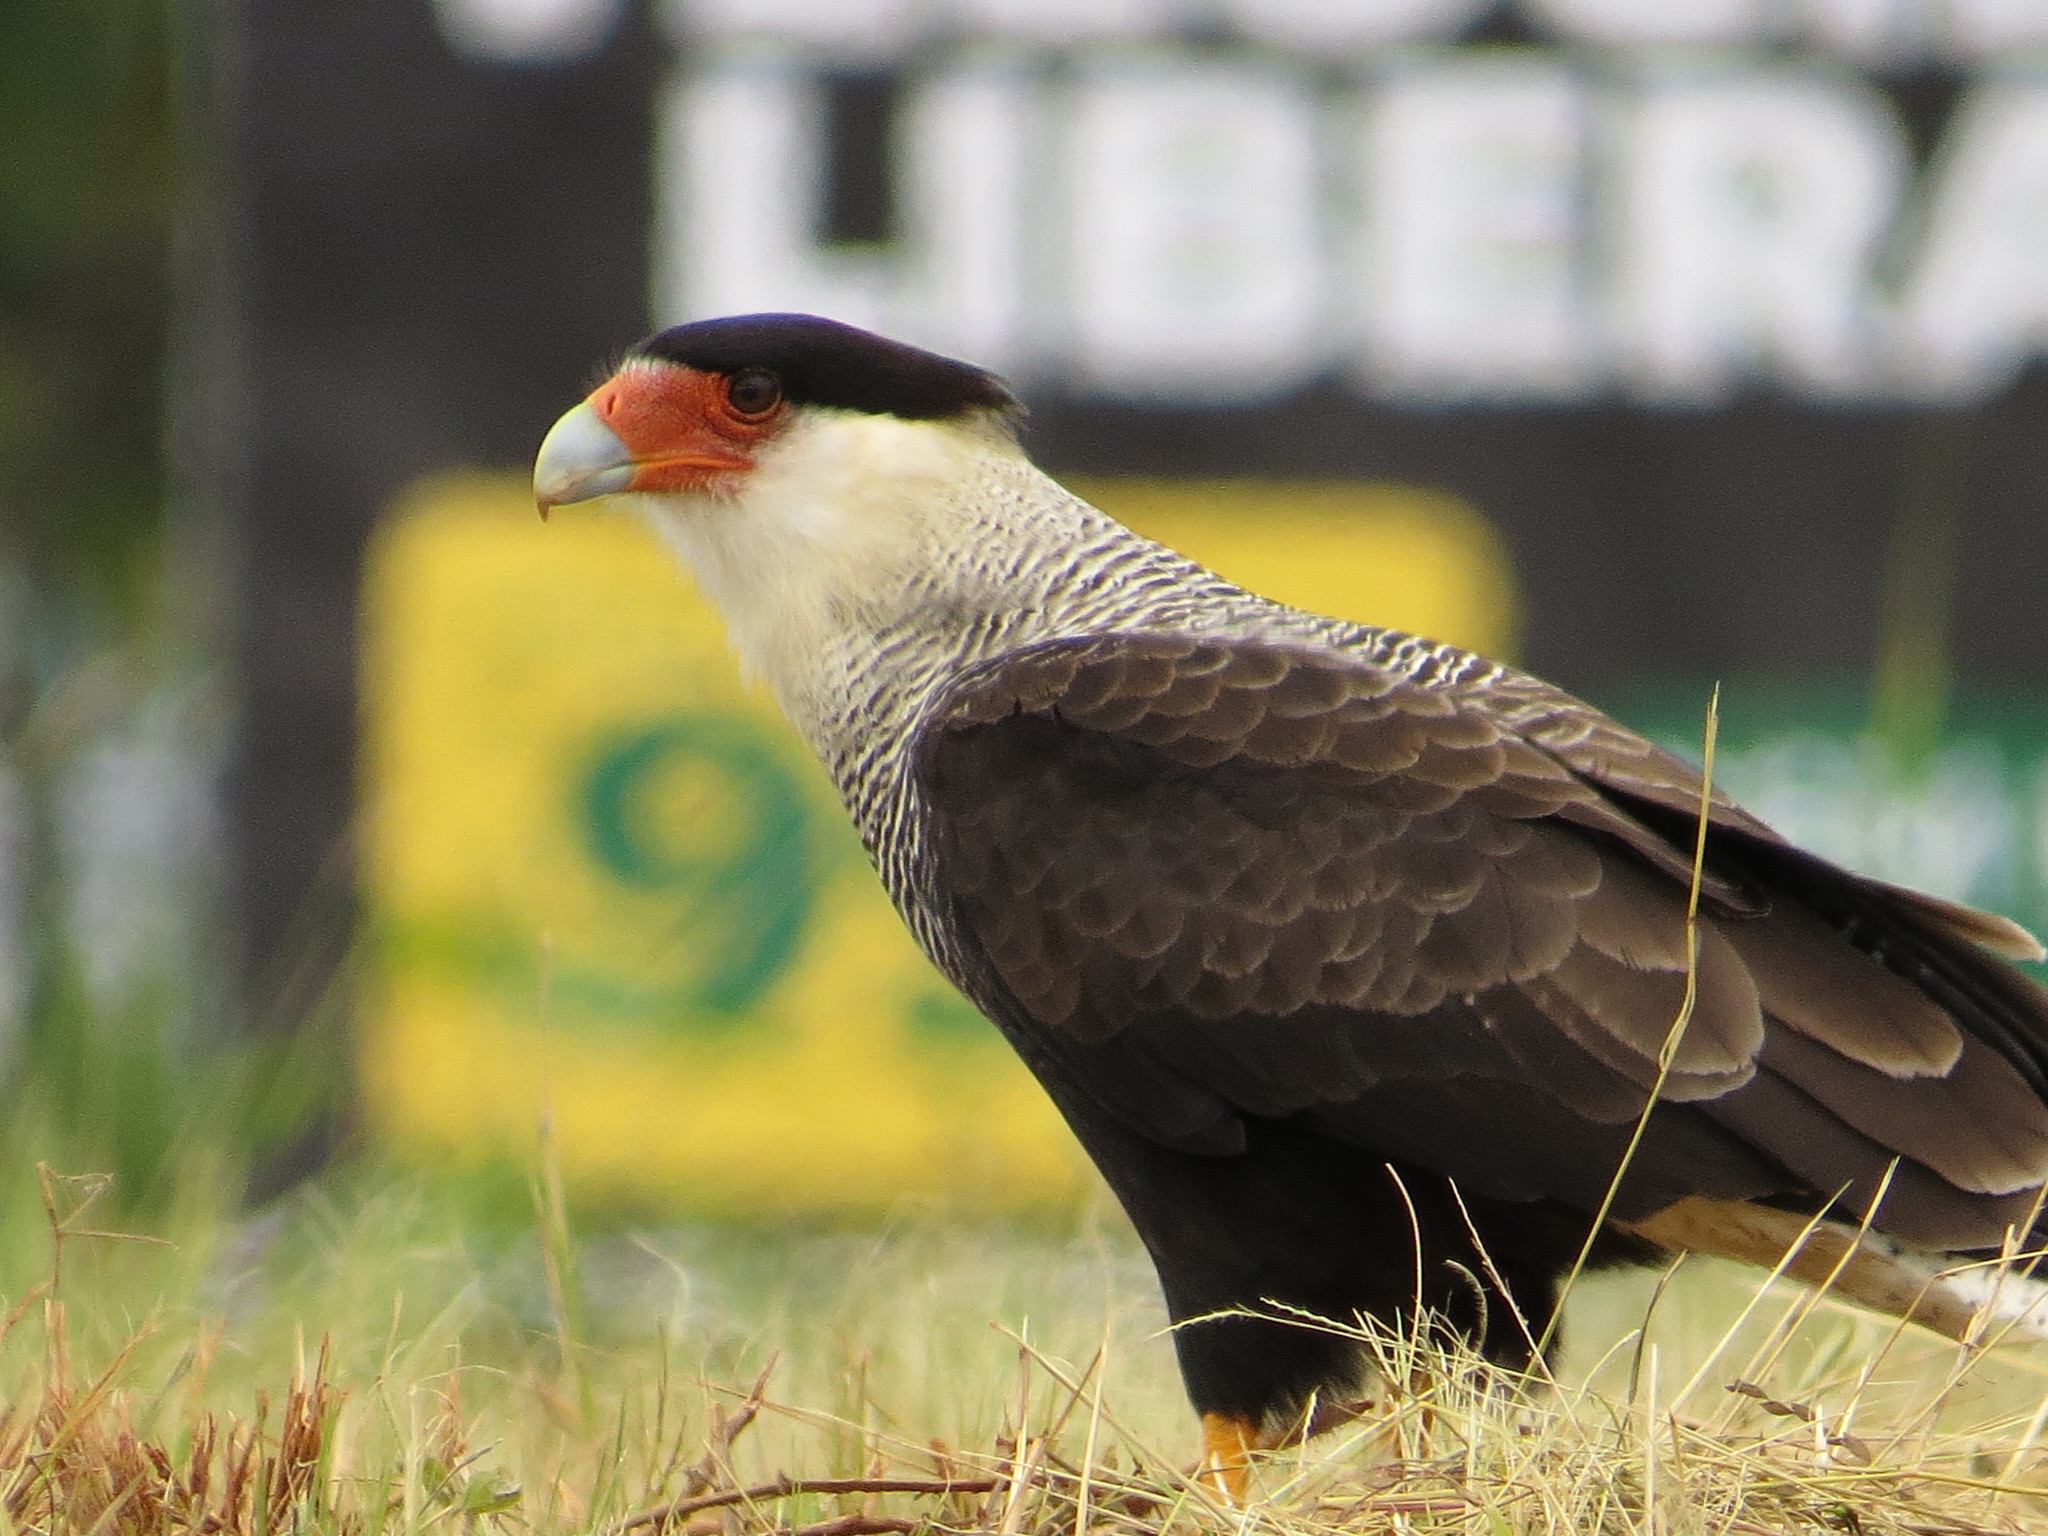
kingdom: Animalia
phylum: Chordata
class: Aves
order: Falconiformes
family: Falconidae
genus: Caracara
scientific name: Caracara plancus
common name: Southern caracara
